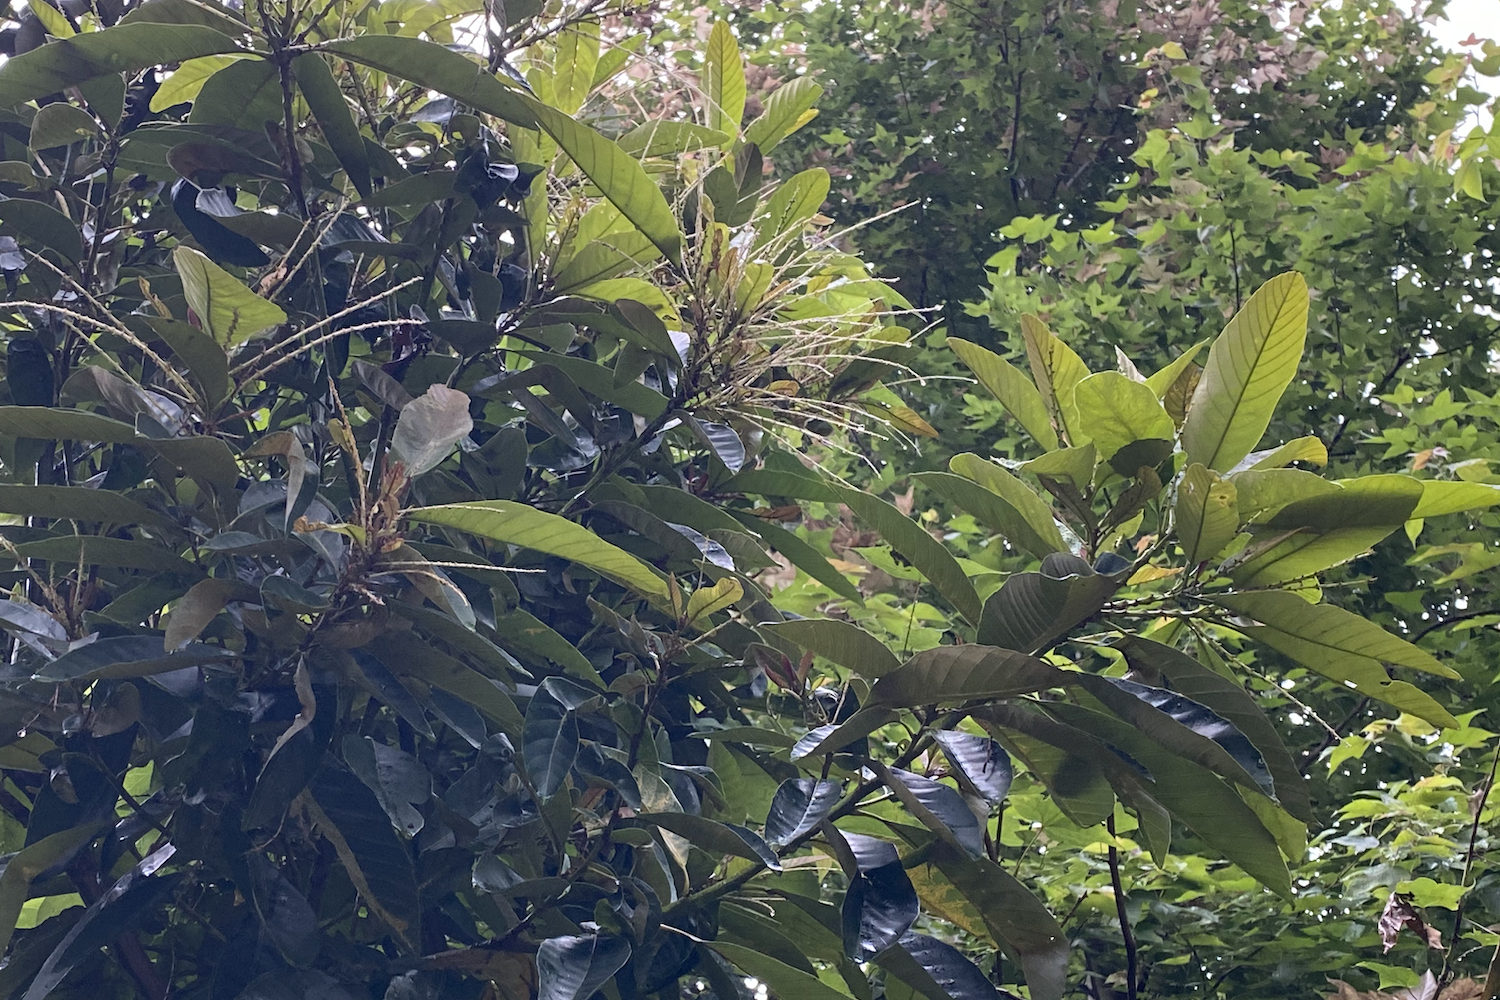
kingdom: Plantae
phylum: Tracheophyta
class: Magnoliopsida
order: Fagales
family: Fagaceae
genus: Castanopsis
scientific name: Castanopsis fissa
